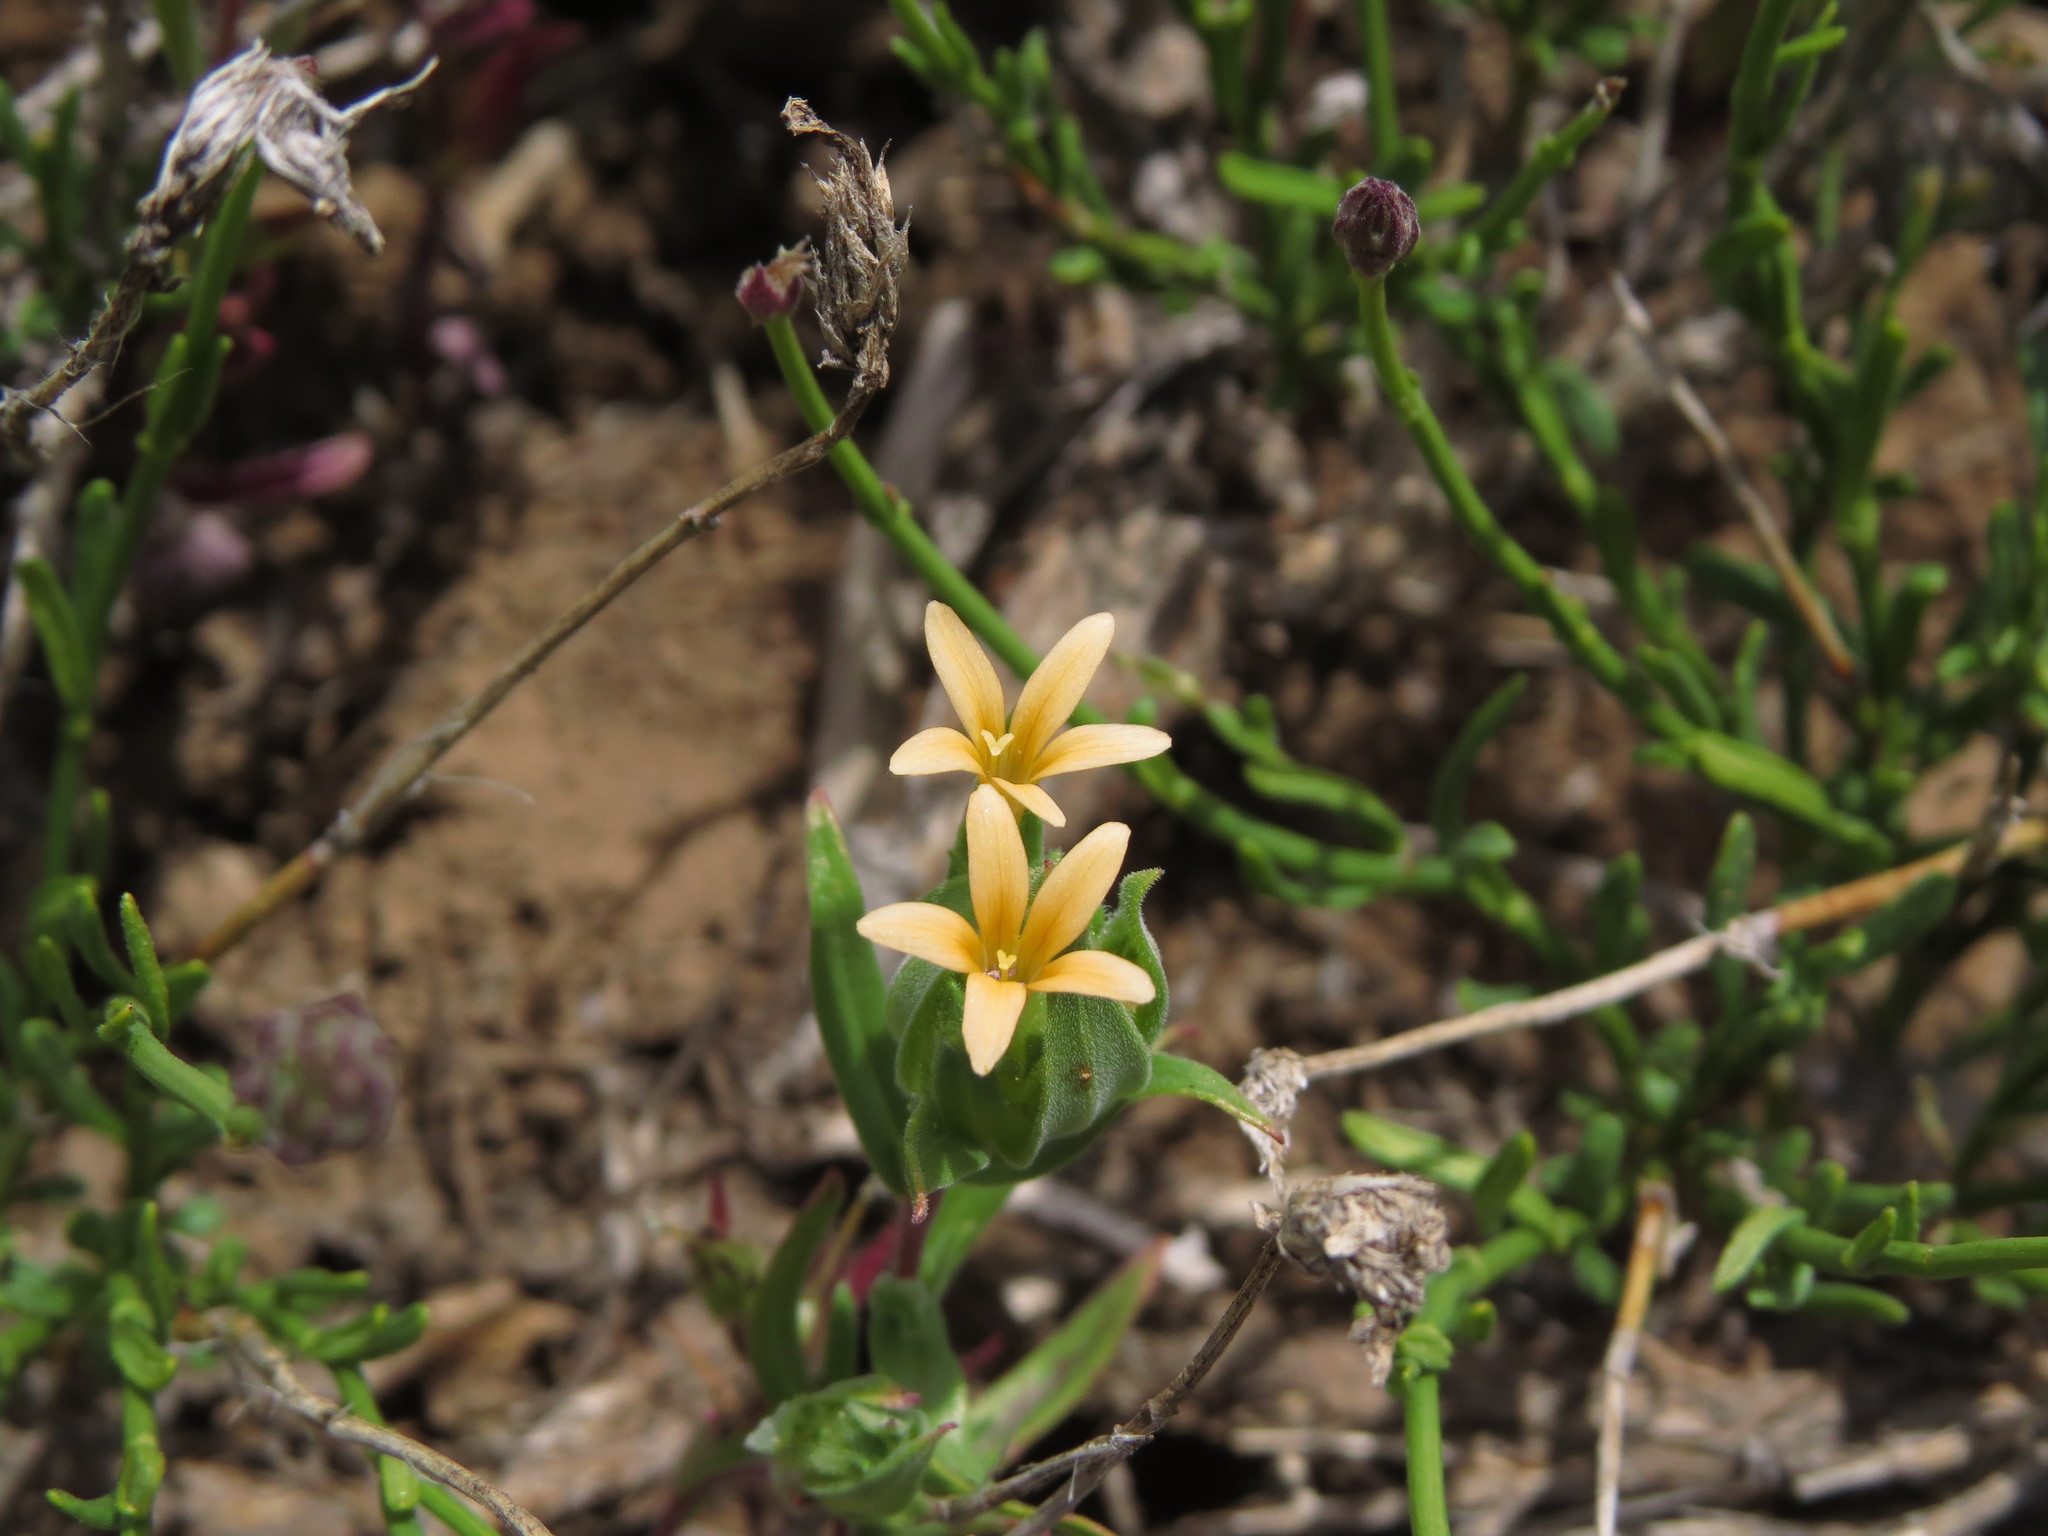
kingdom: Plantae
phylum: Tracheophyta
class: Magnoliopsida
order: Ericales
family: Polemoniaceae
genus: Collomia
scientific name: Collomia biflora
